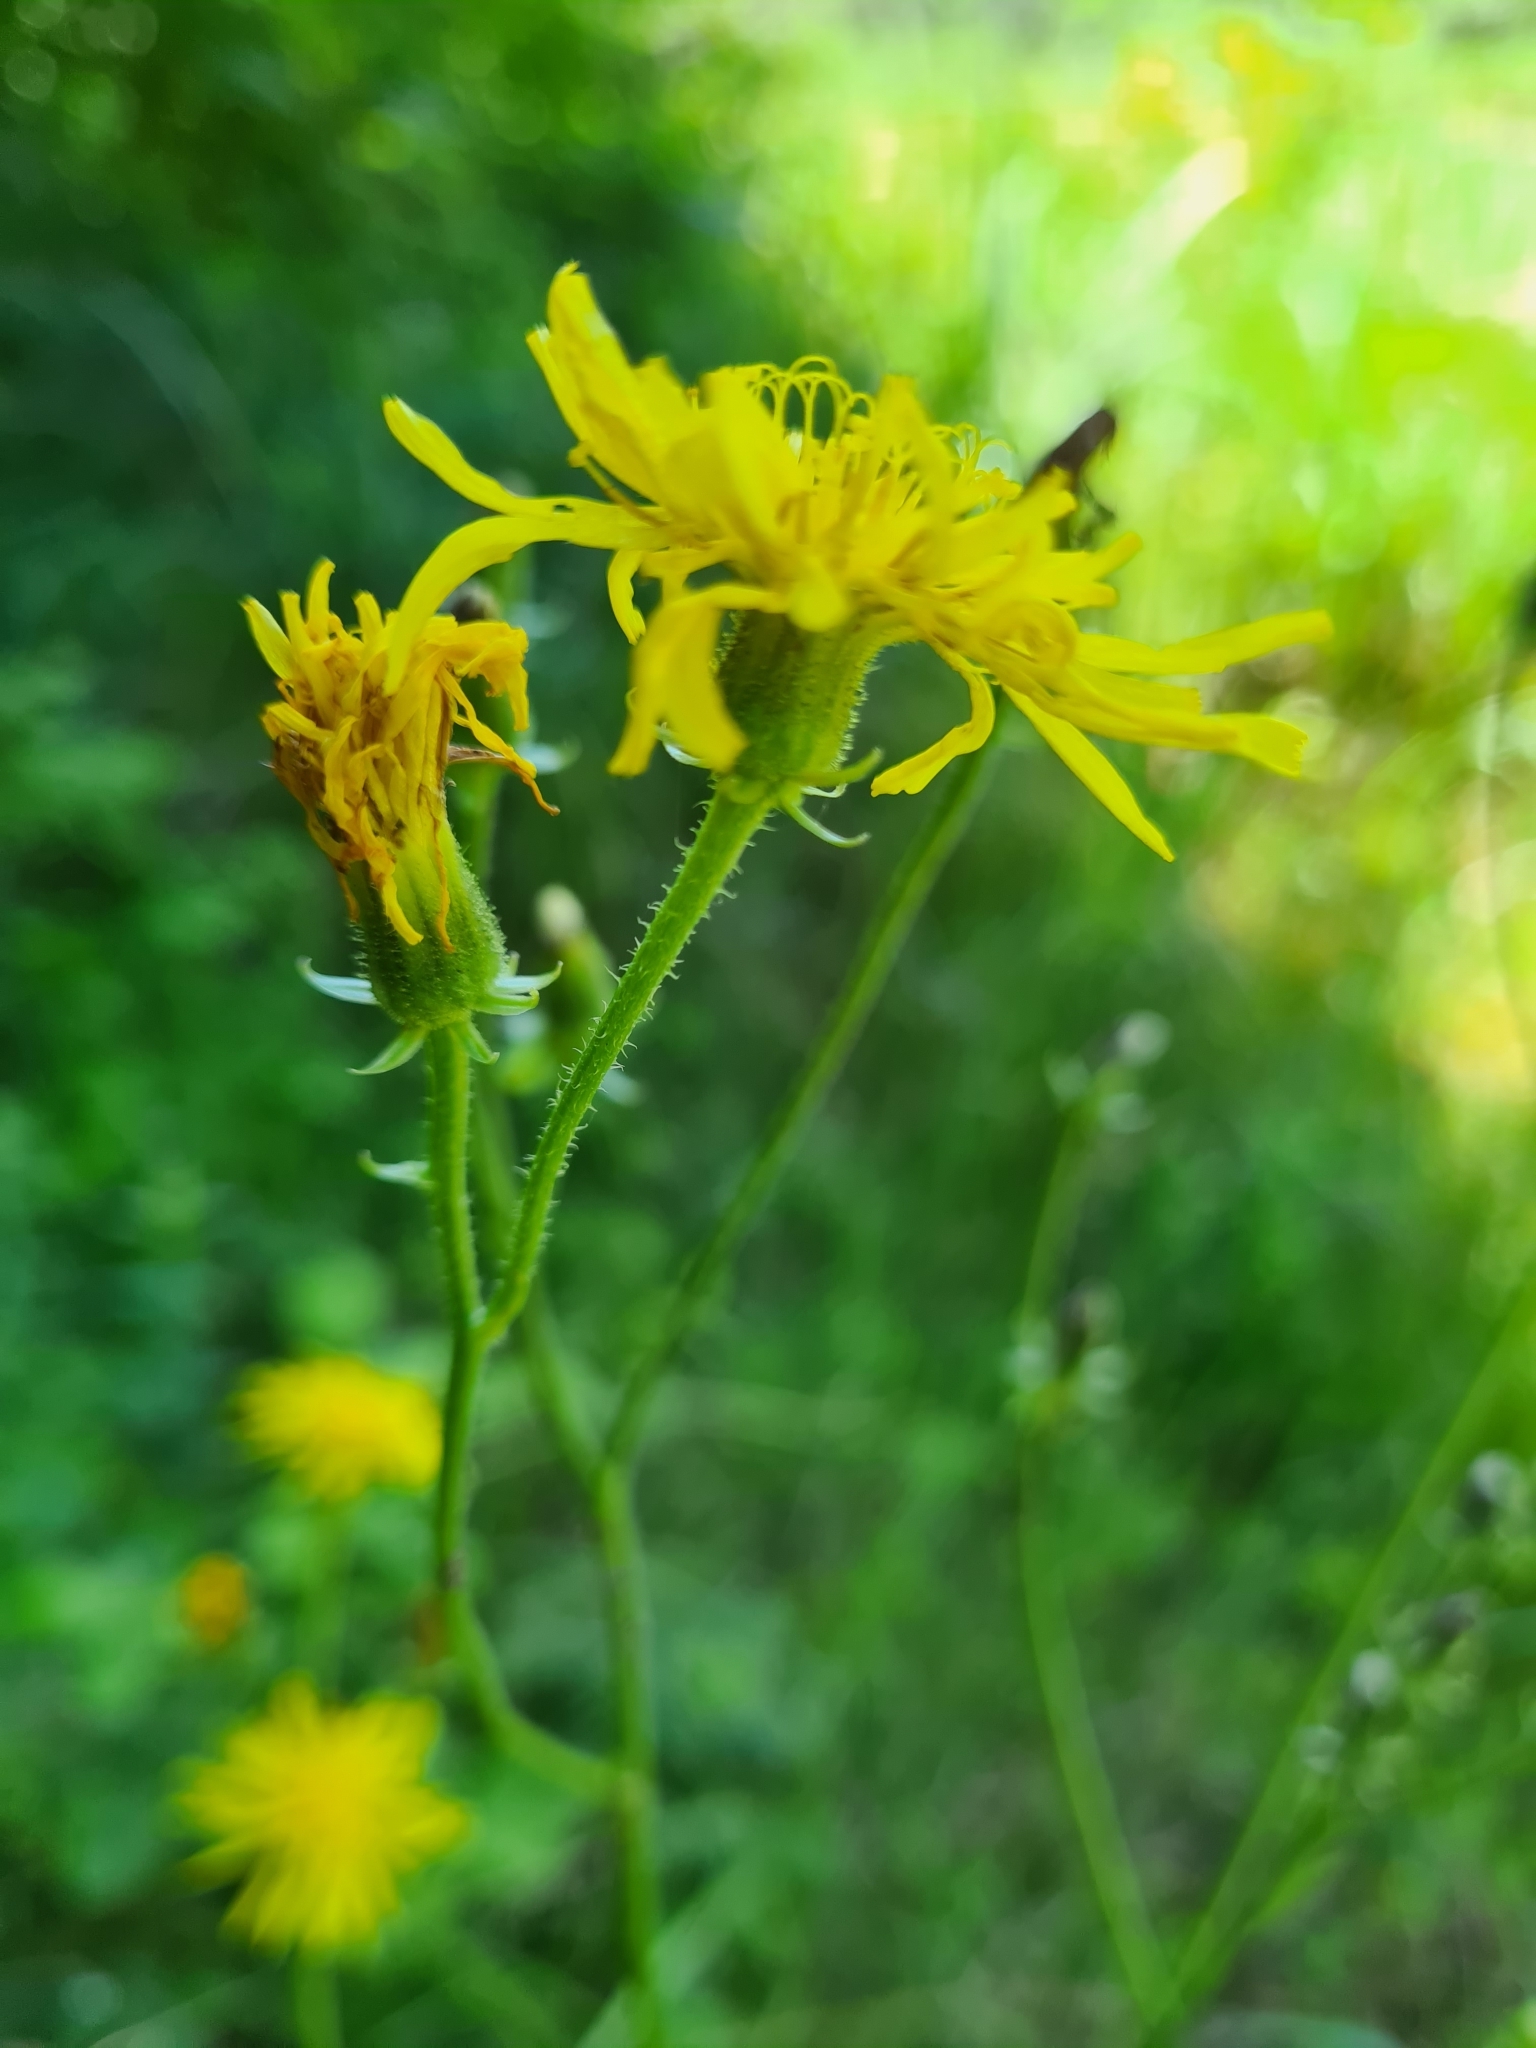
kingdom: Plantae
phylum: Tracheophyta
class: Magnoliopsida
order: Asterales
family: Asteraceae
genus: Crepis
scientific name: Crepis biennis
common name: Rough hawk's-beard
